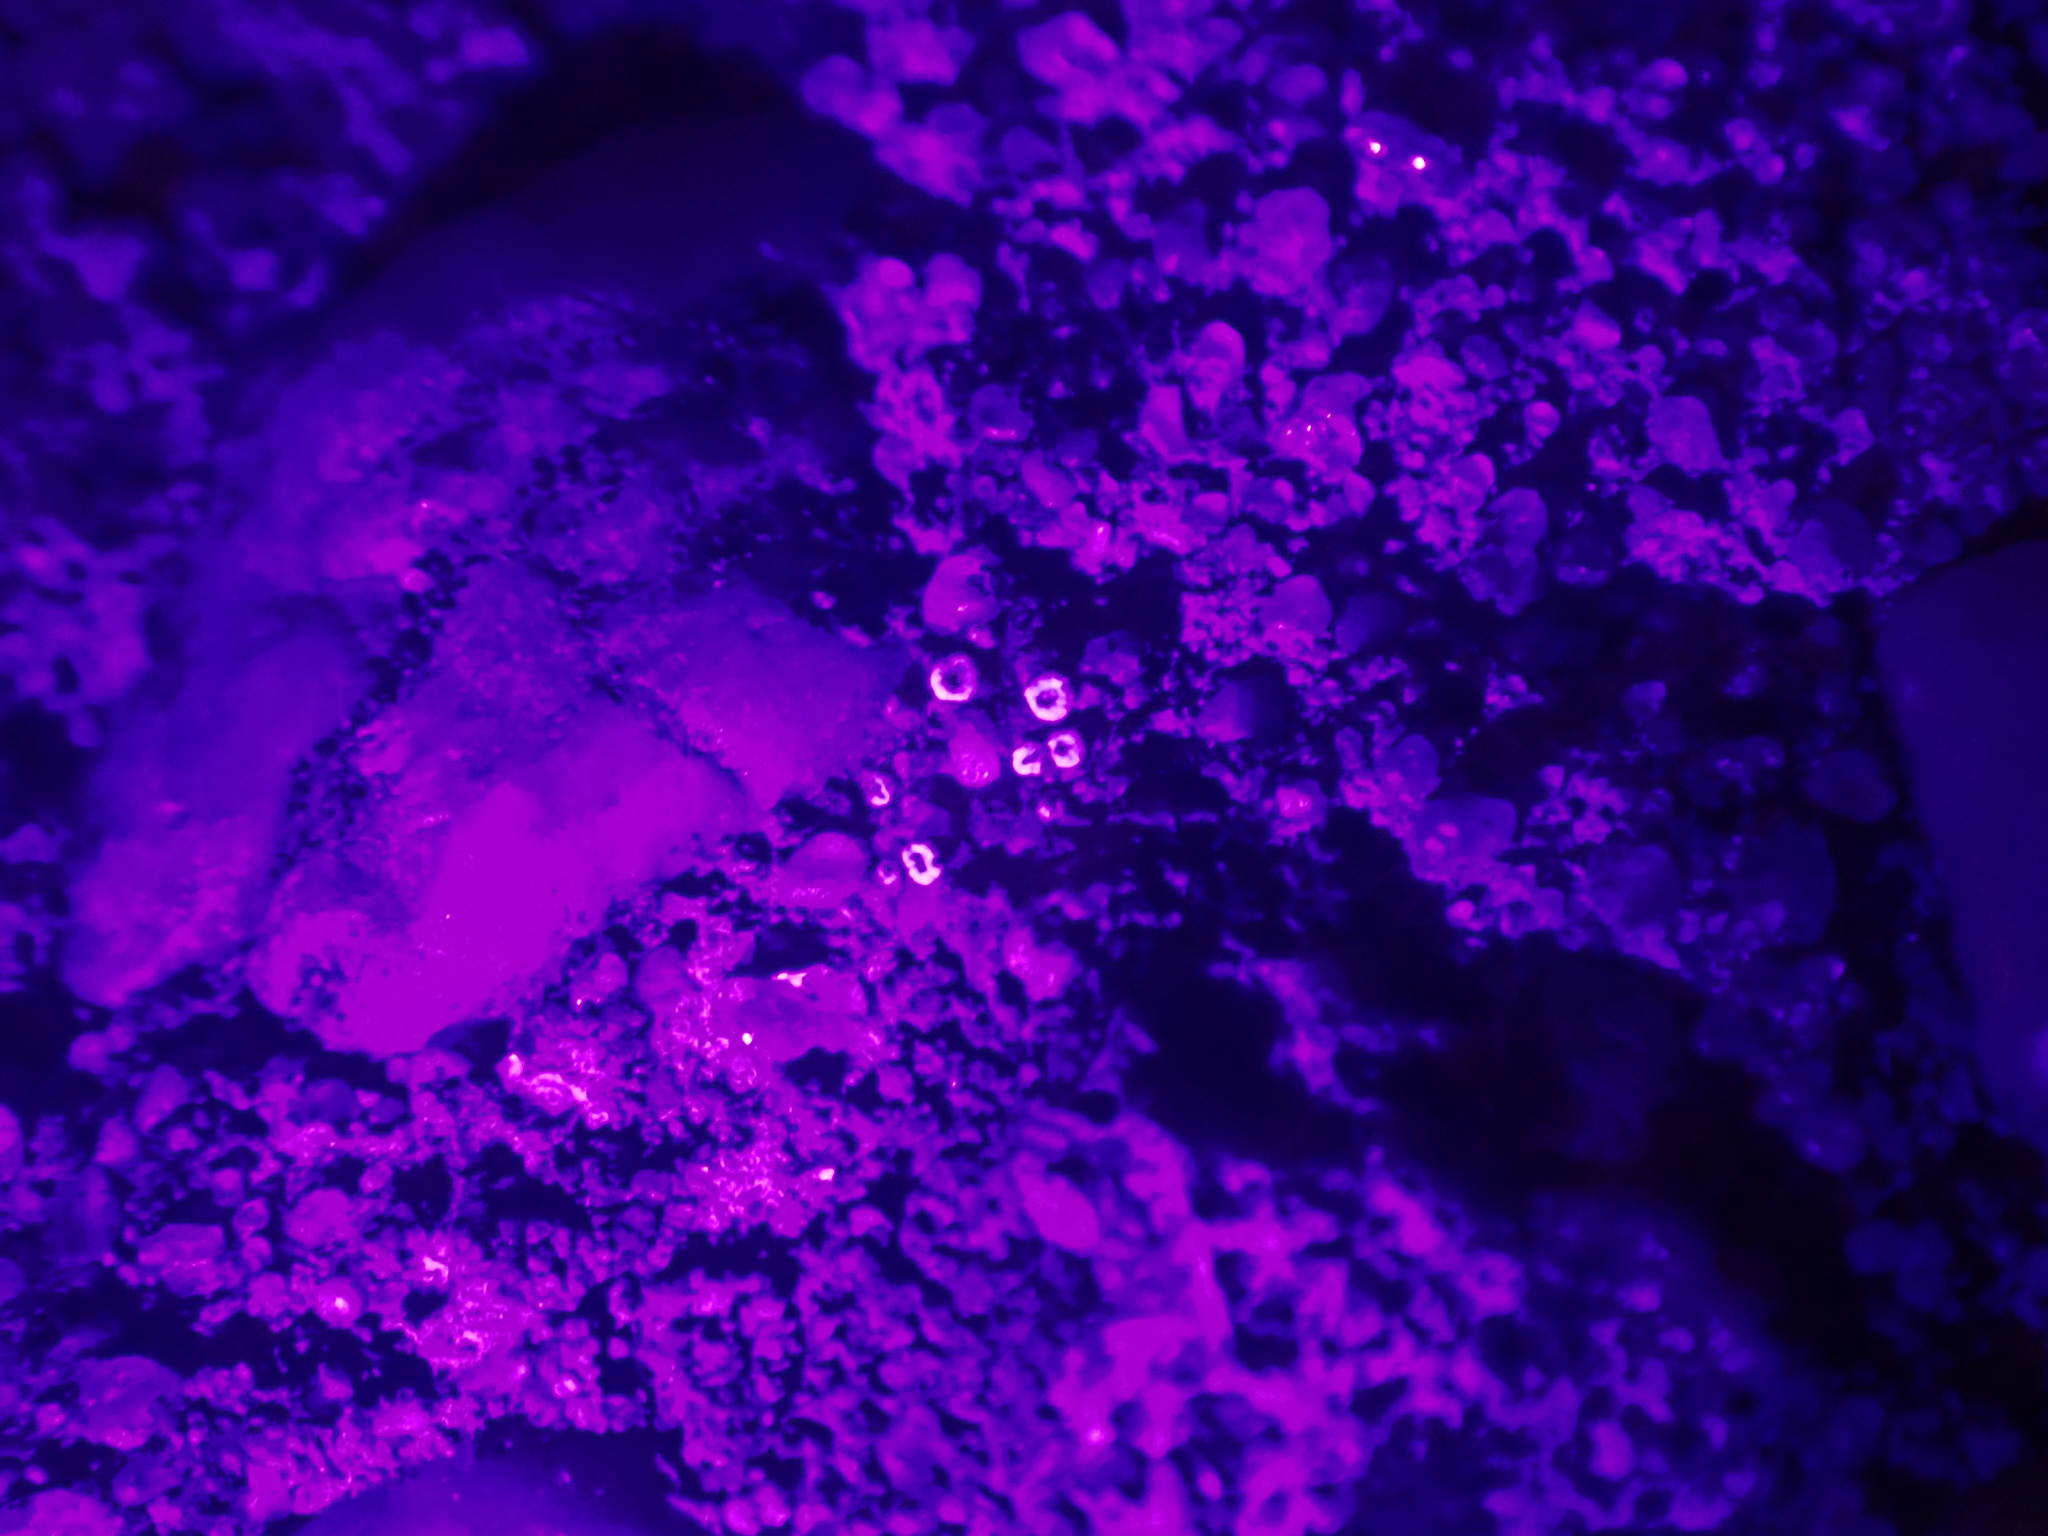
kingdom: Fungi
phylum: Ascomycota
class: Lecanoromycetes
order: Lecanorales
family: Lecanoraceae
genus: Polyozosia
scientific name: Polyozosia dispersa
